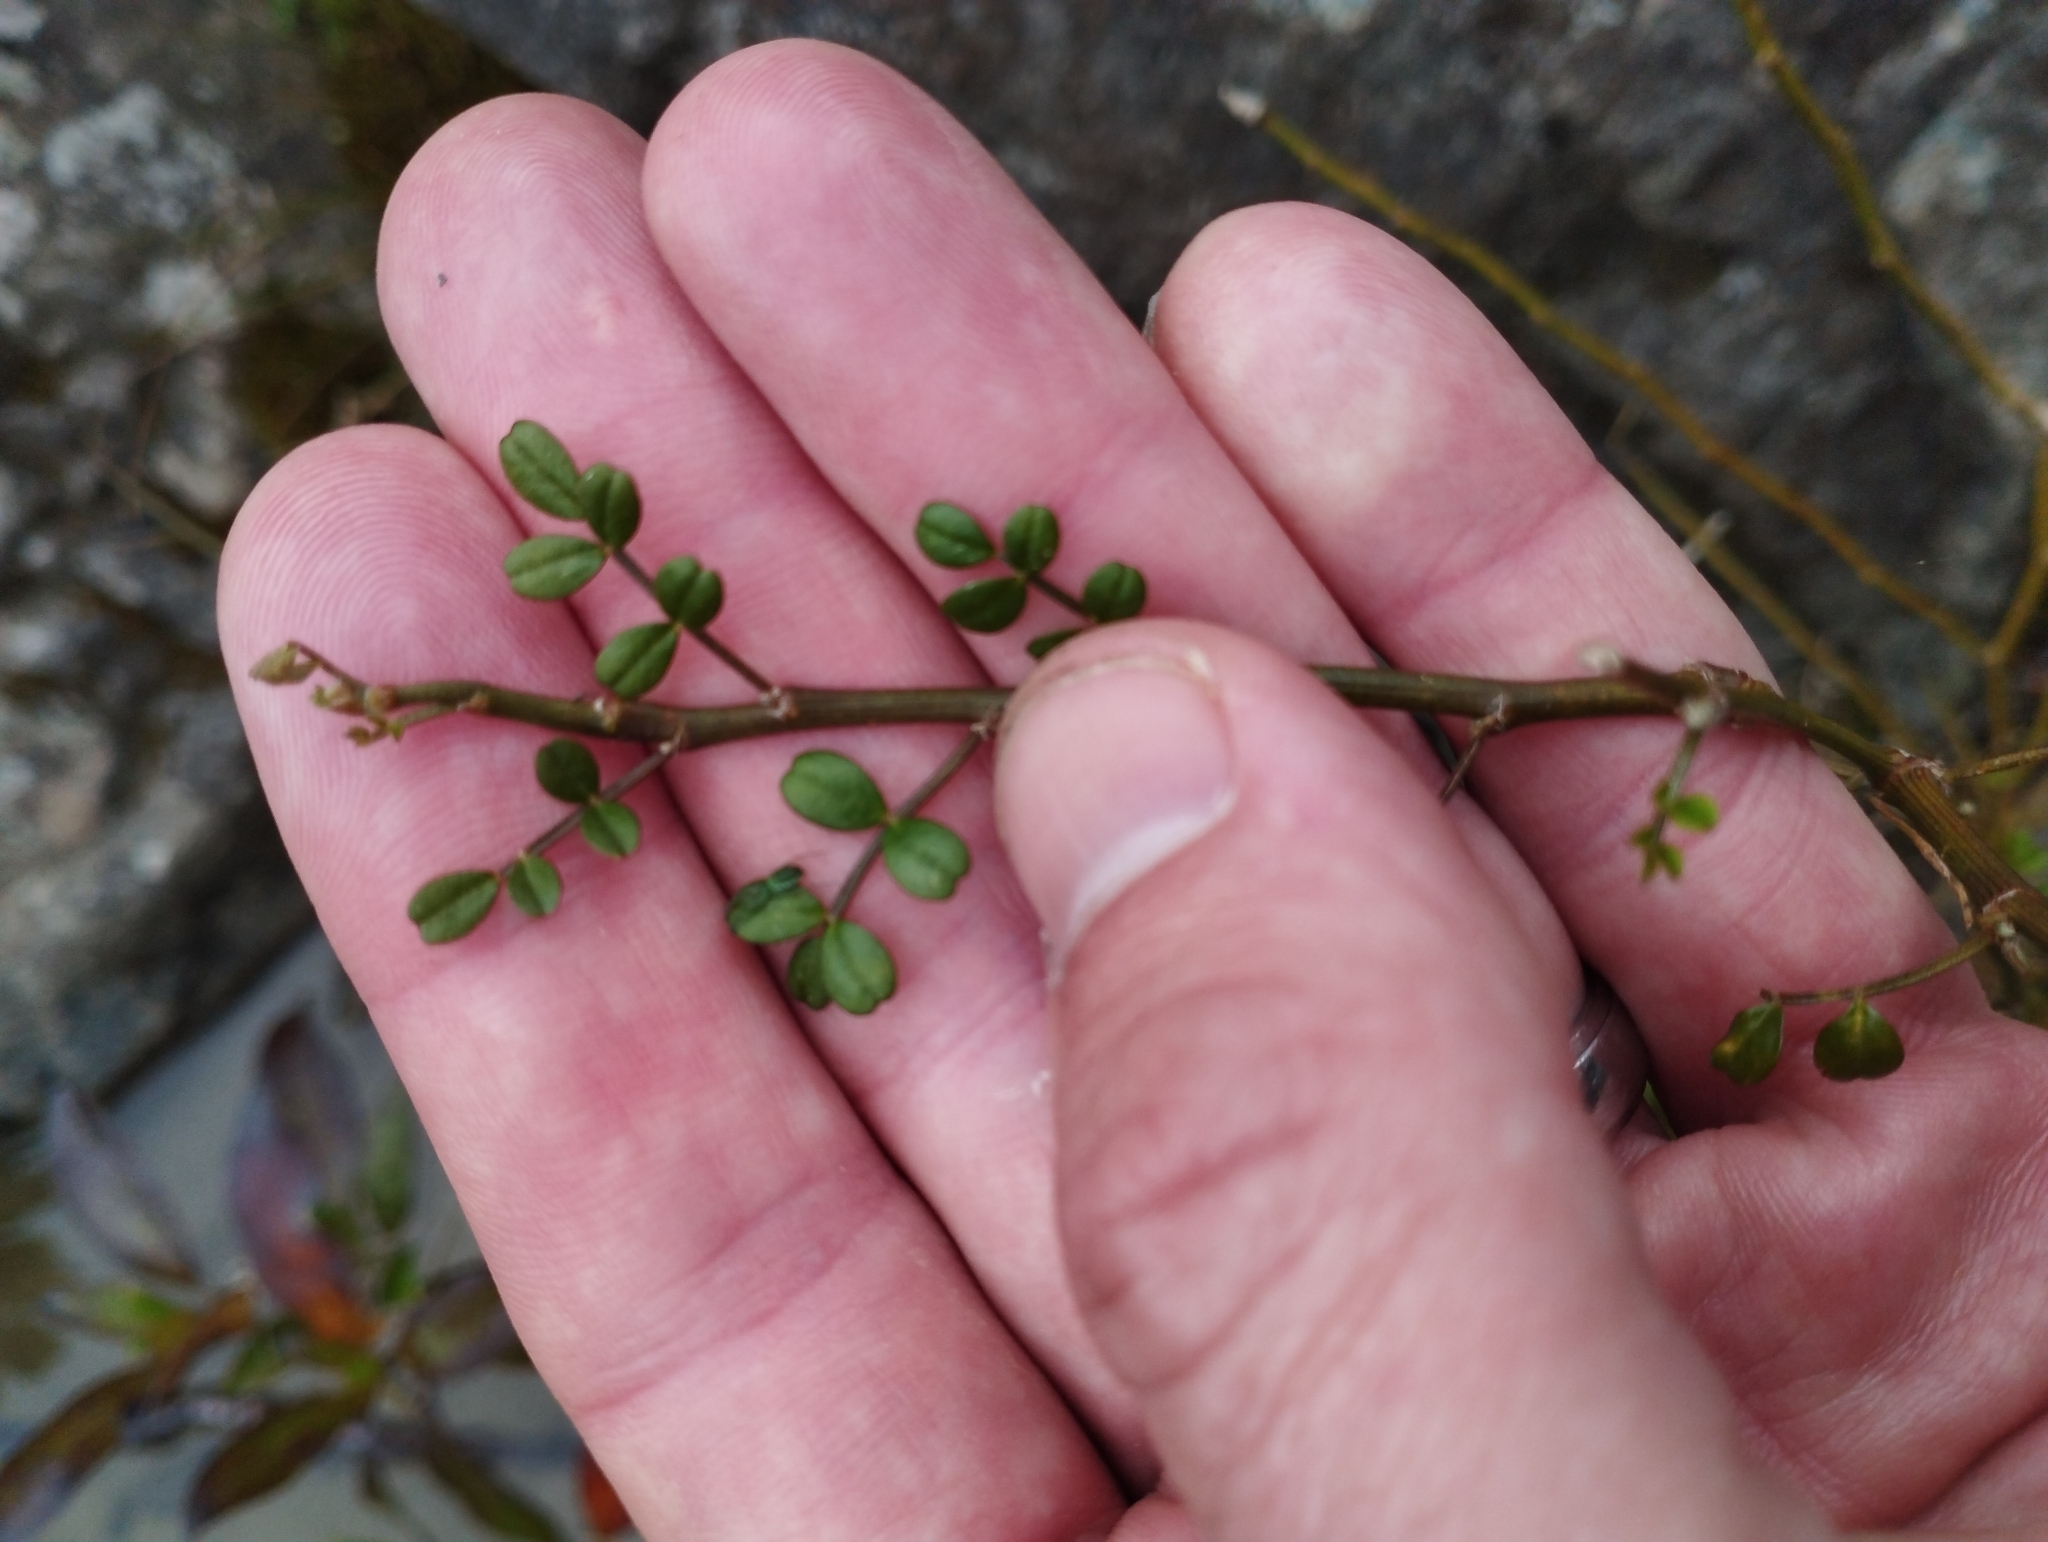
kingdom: Plantae
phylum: Tracheophyta
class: Magnoliopsida
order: Fabales
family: Fabaceae
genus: Carmichaelia
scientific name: Carmichaelia arborea
